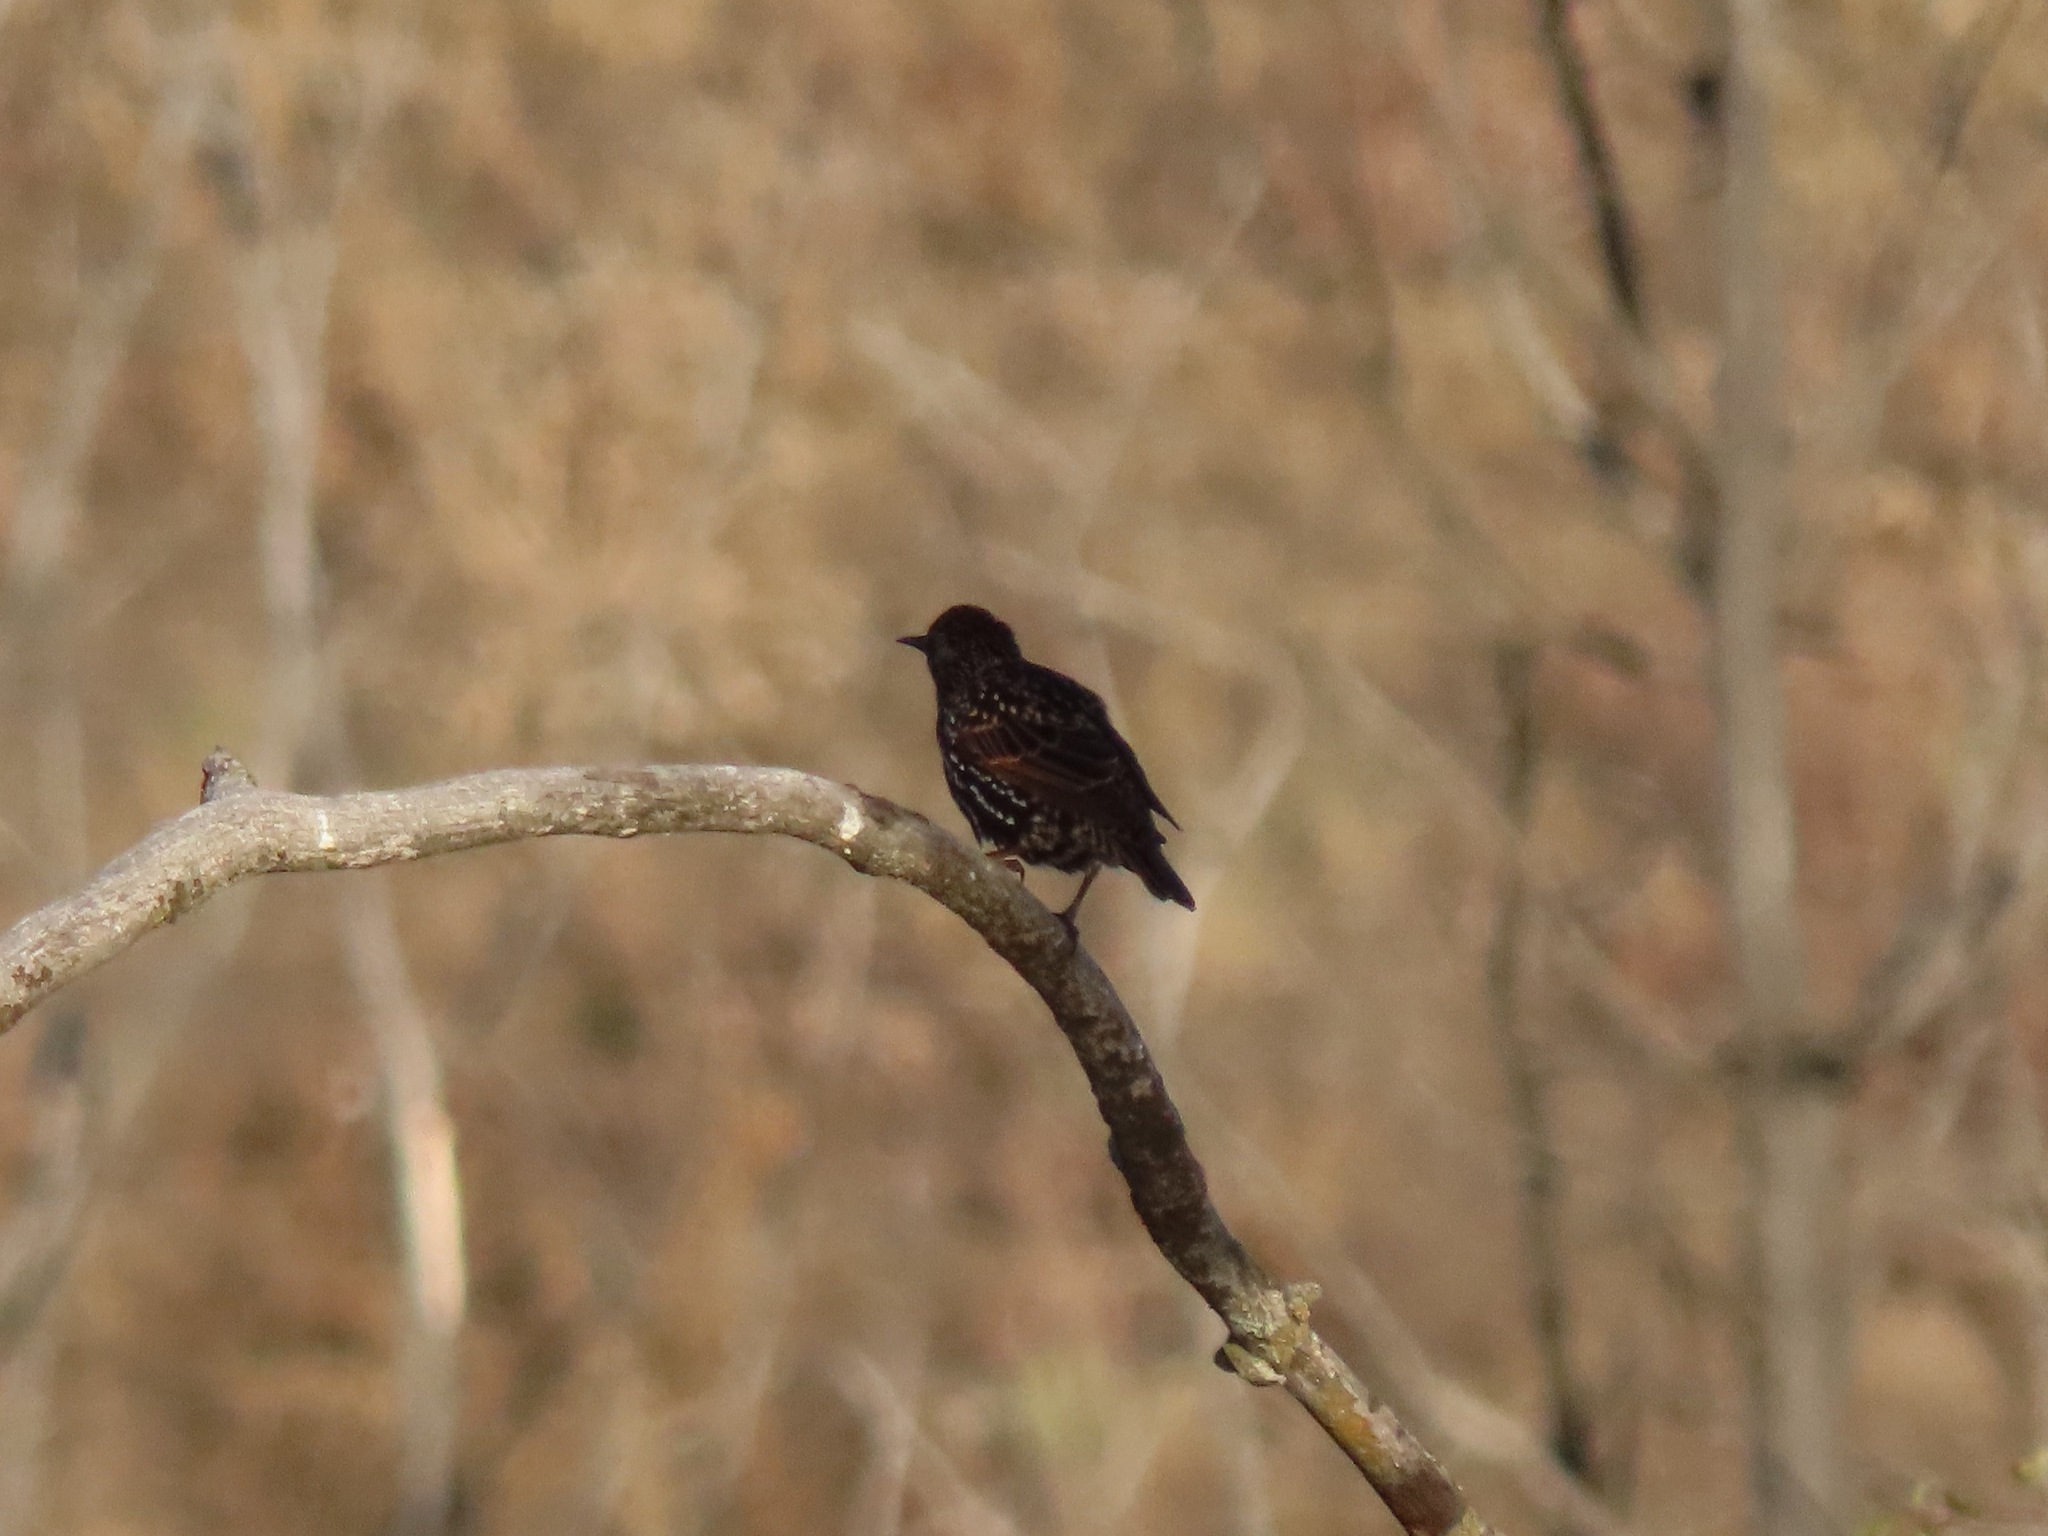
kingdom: Animalia
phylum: Chordata
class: Aves
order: Passeriformes
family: Sturnidae
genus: Sturnus
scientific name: Sturnus vulgaris
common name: Common starling
